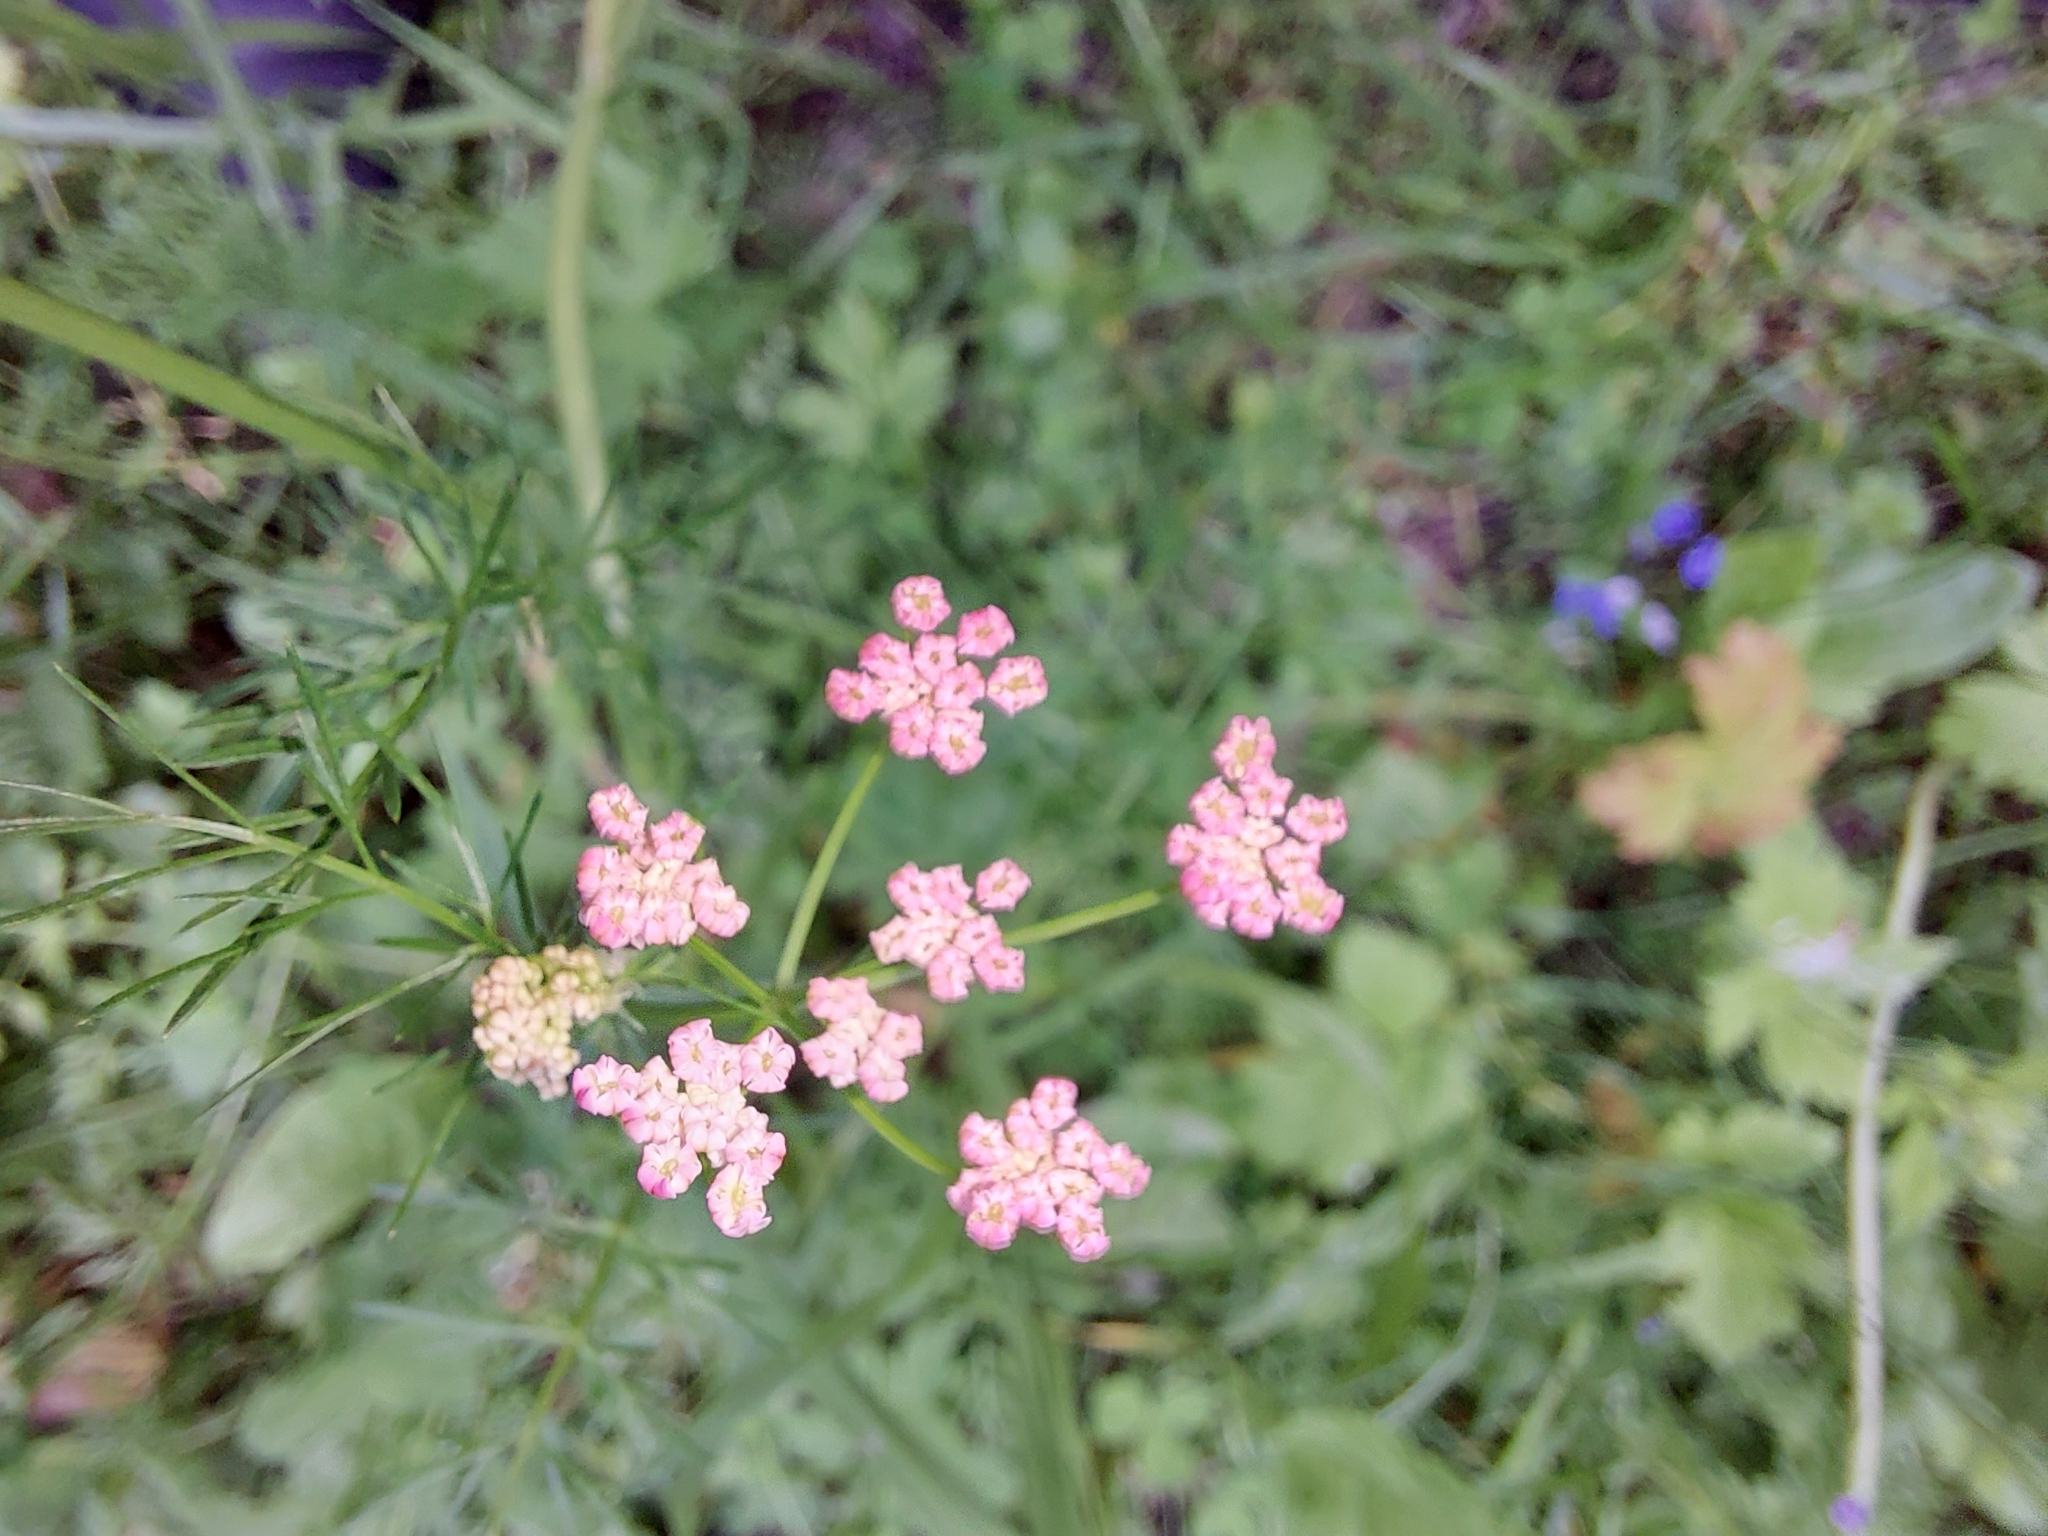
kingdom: Plantae
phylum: Tracheophyta
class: Magnoliopsida
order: Apiales
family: Apiaceae
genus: Carum
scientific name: Carum carvi
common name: Caraway
